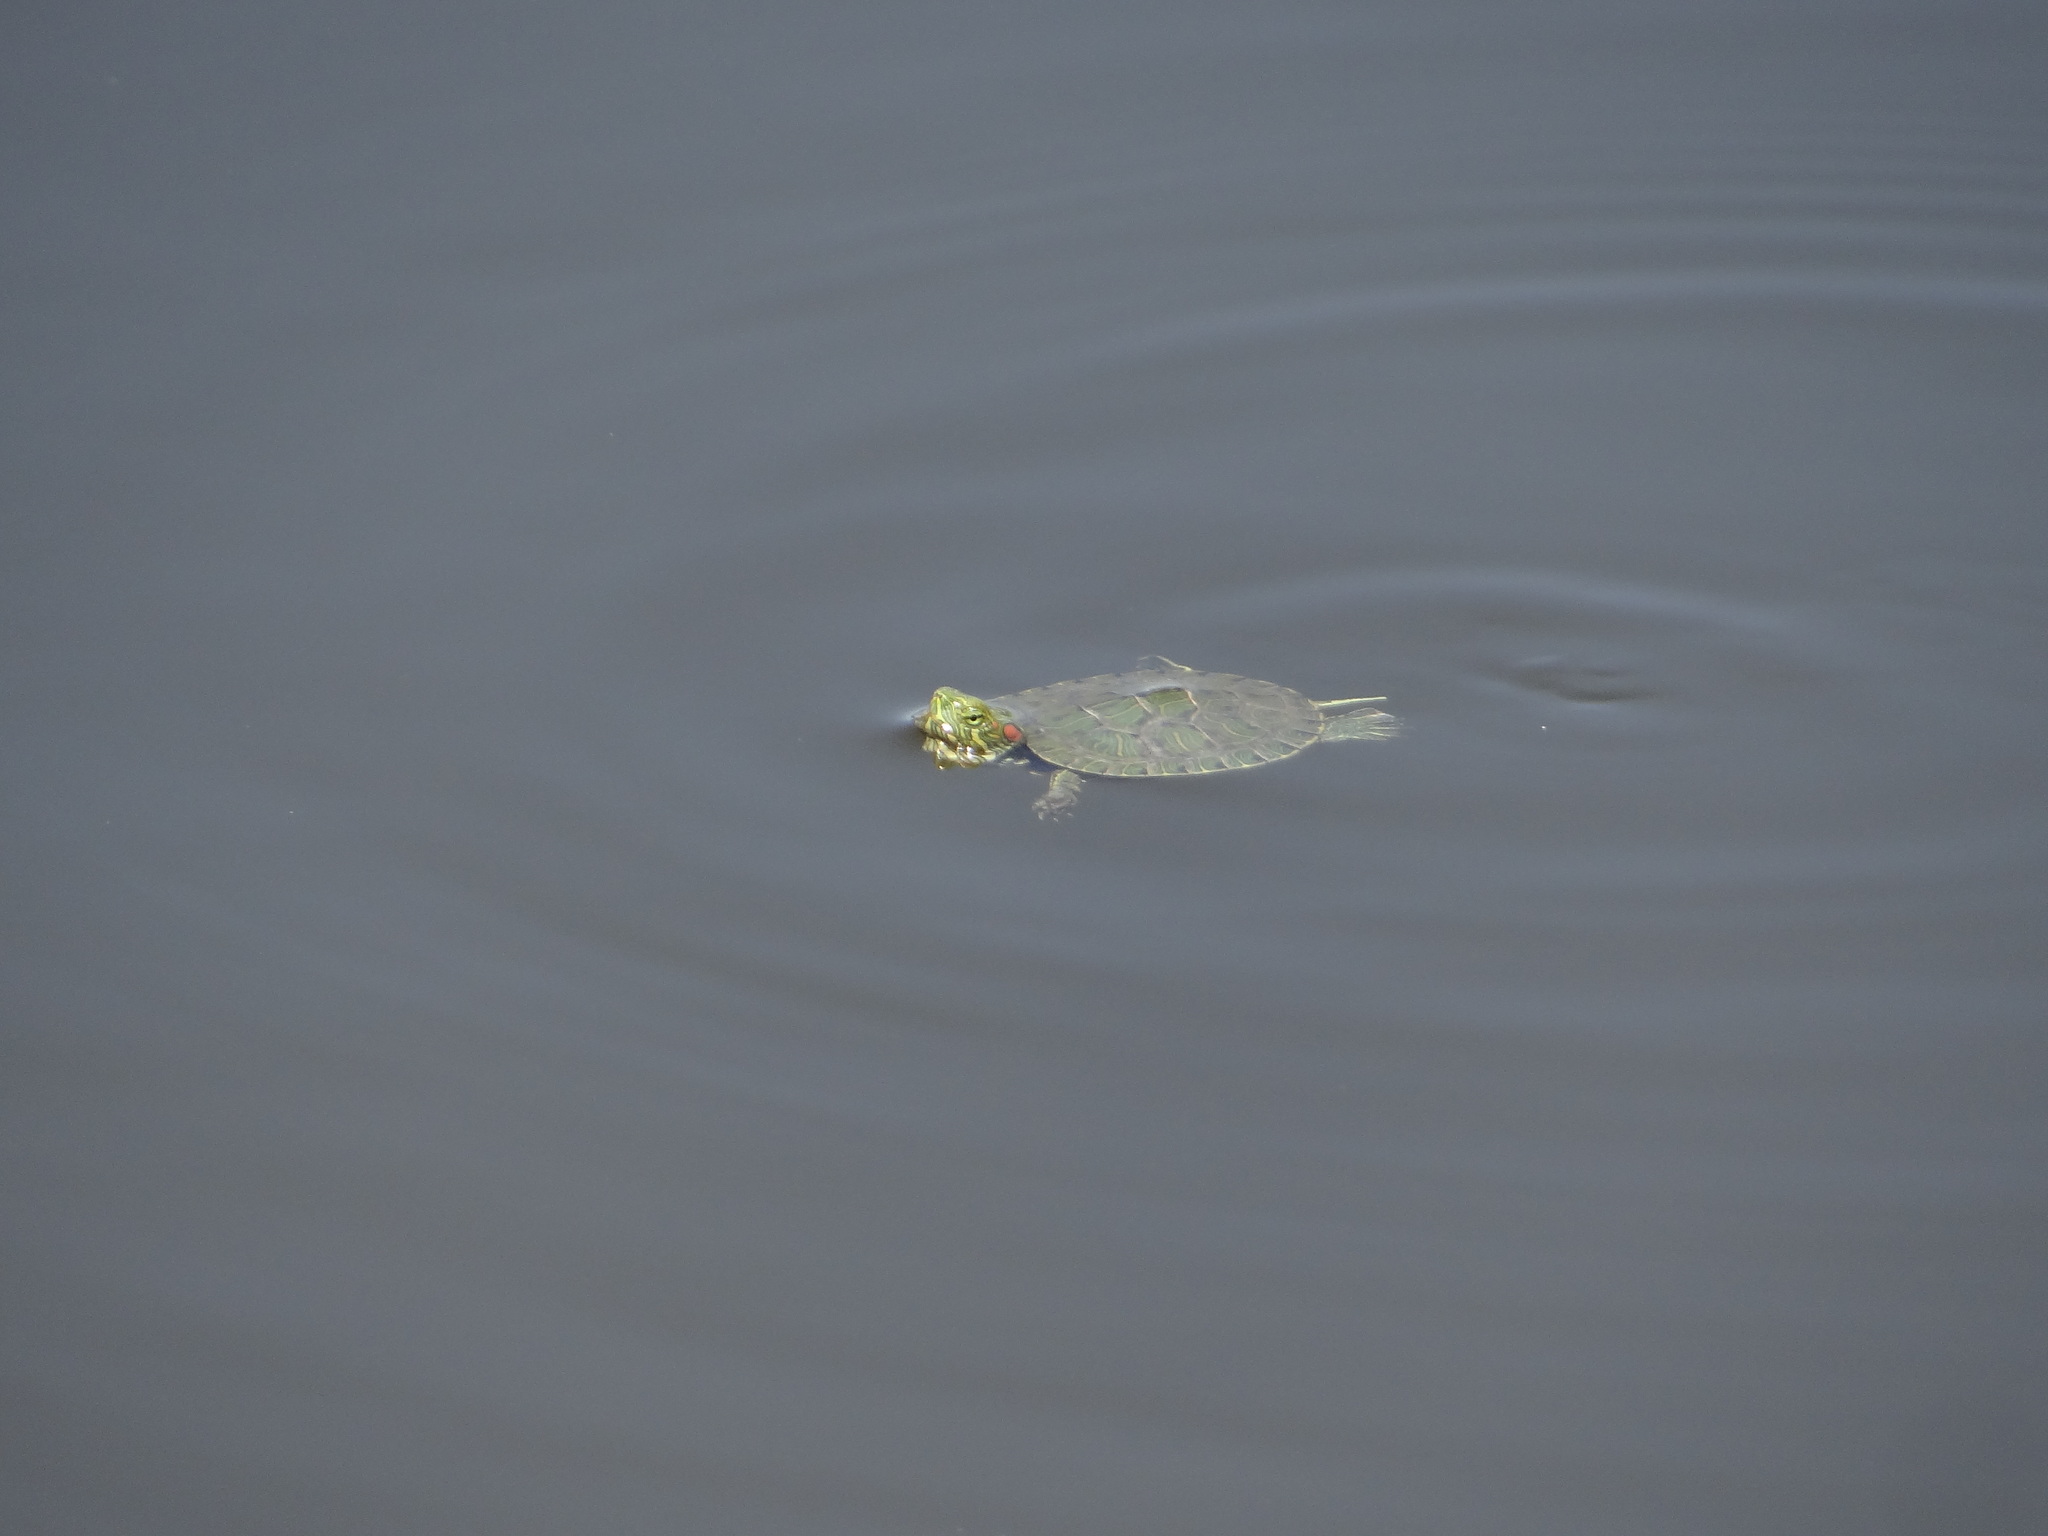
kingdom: Animalia
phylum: Chordata
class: Testudines
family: Emydidae
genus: Trachemys
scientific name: Trachemys scripta
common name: Slider
